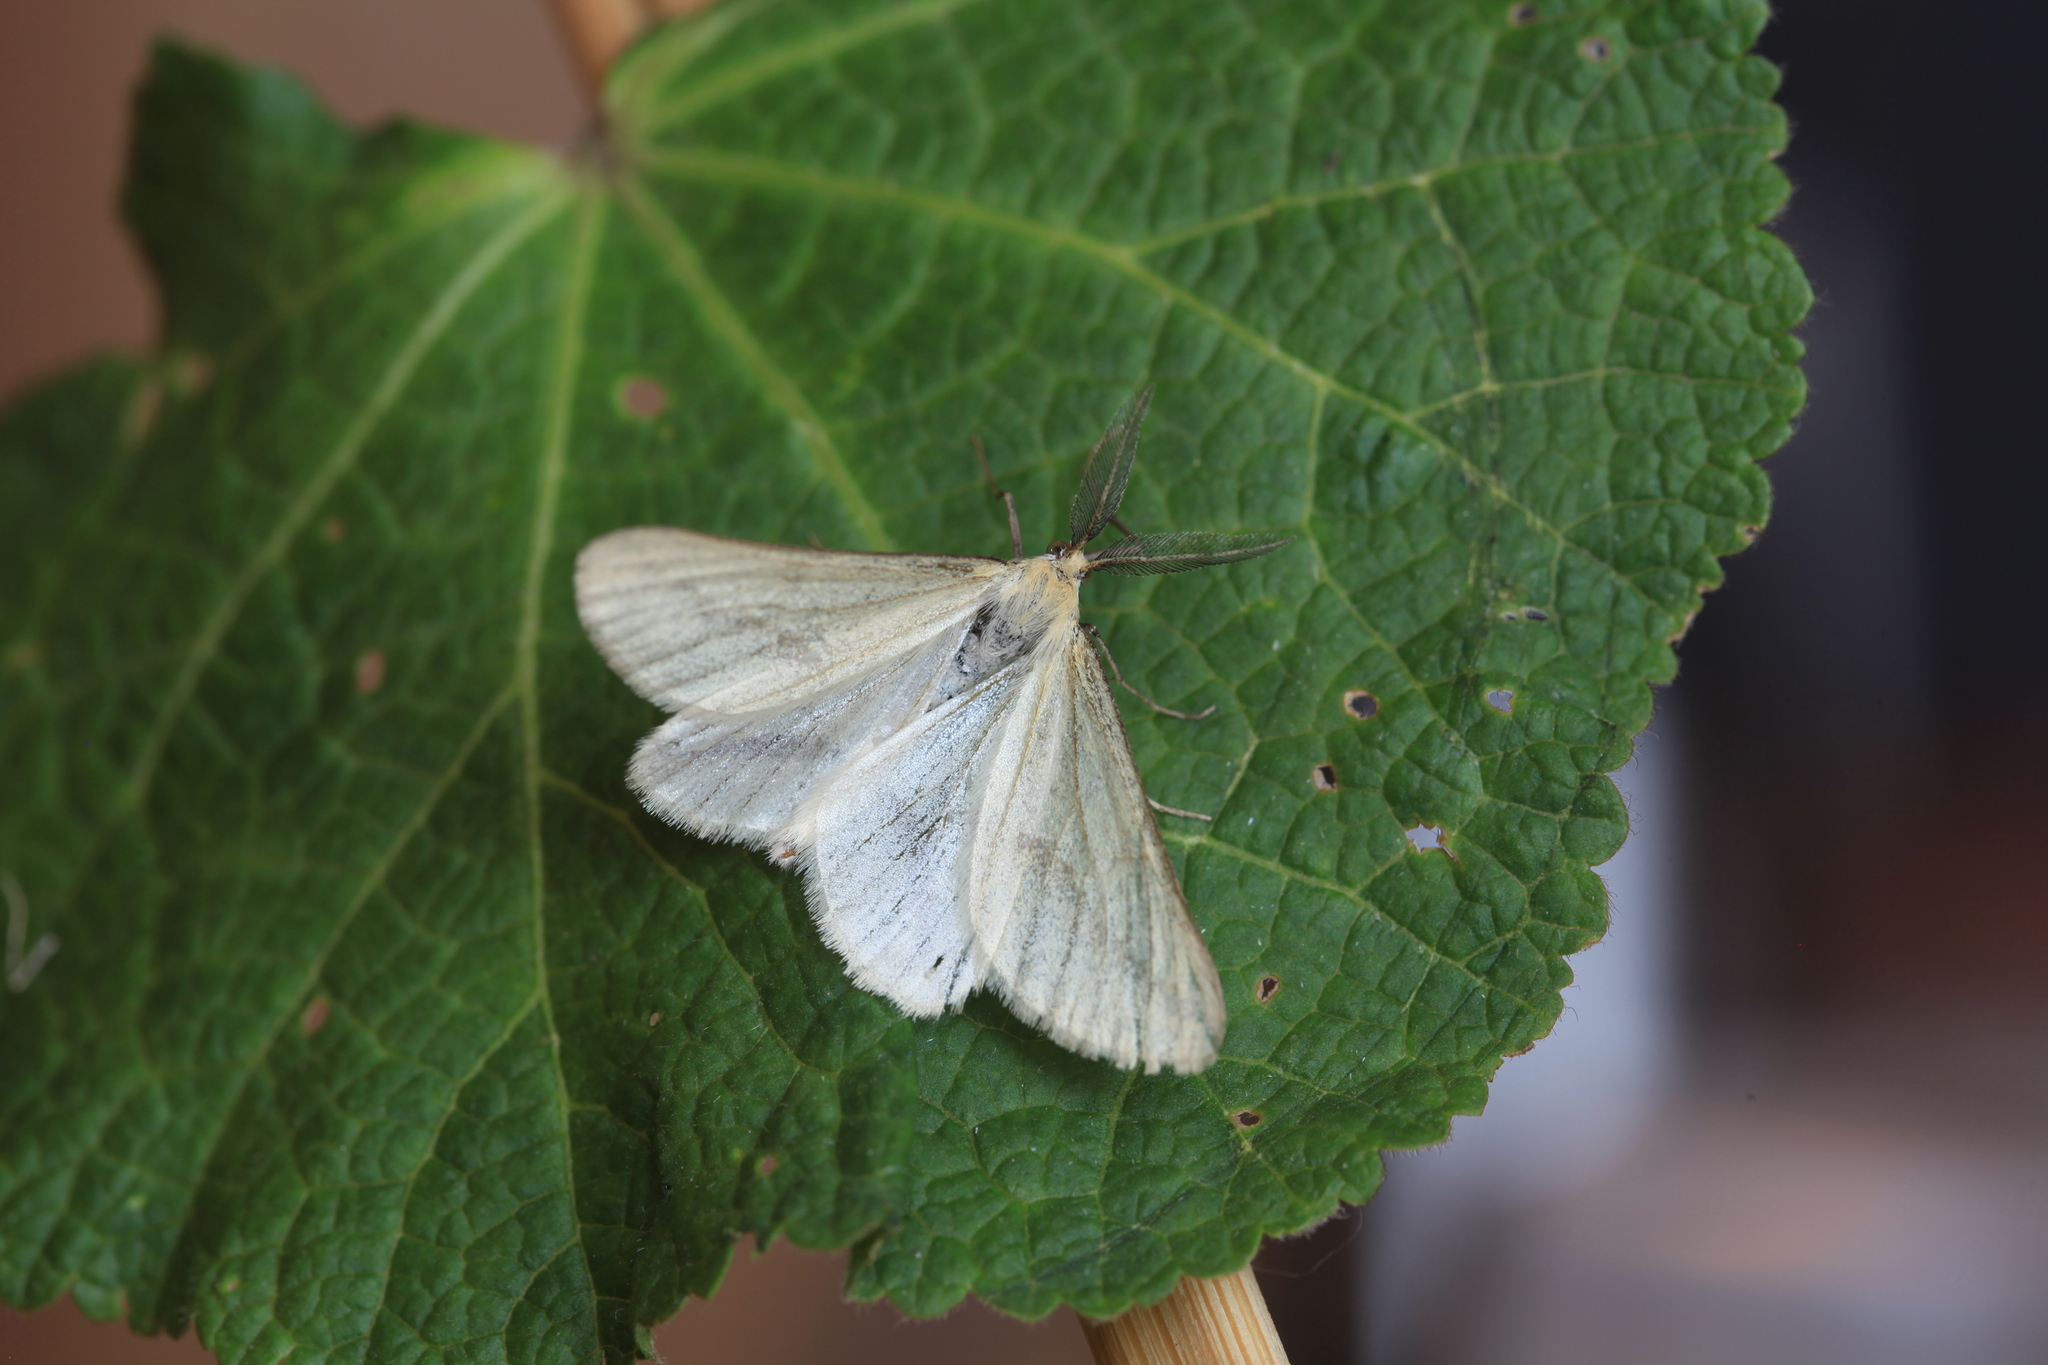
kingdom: Animalia
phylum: Arthropoda
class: Insecta
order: Lepidoptera
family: Geometridae
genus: Aspitates
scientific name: Aspitates albaria
